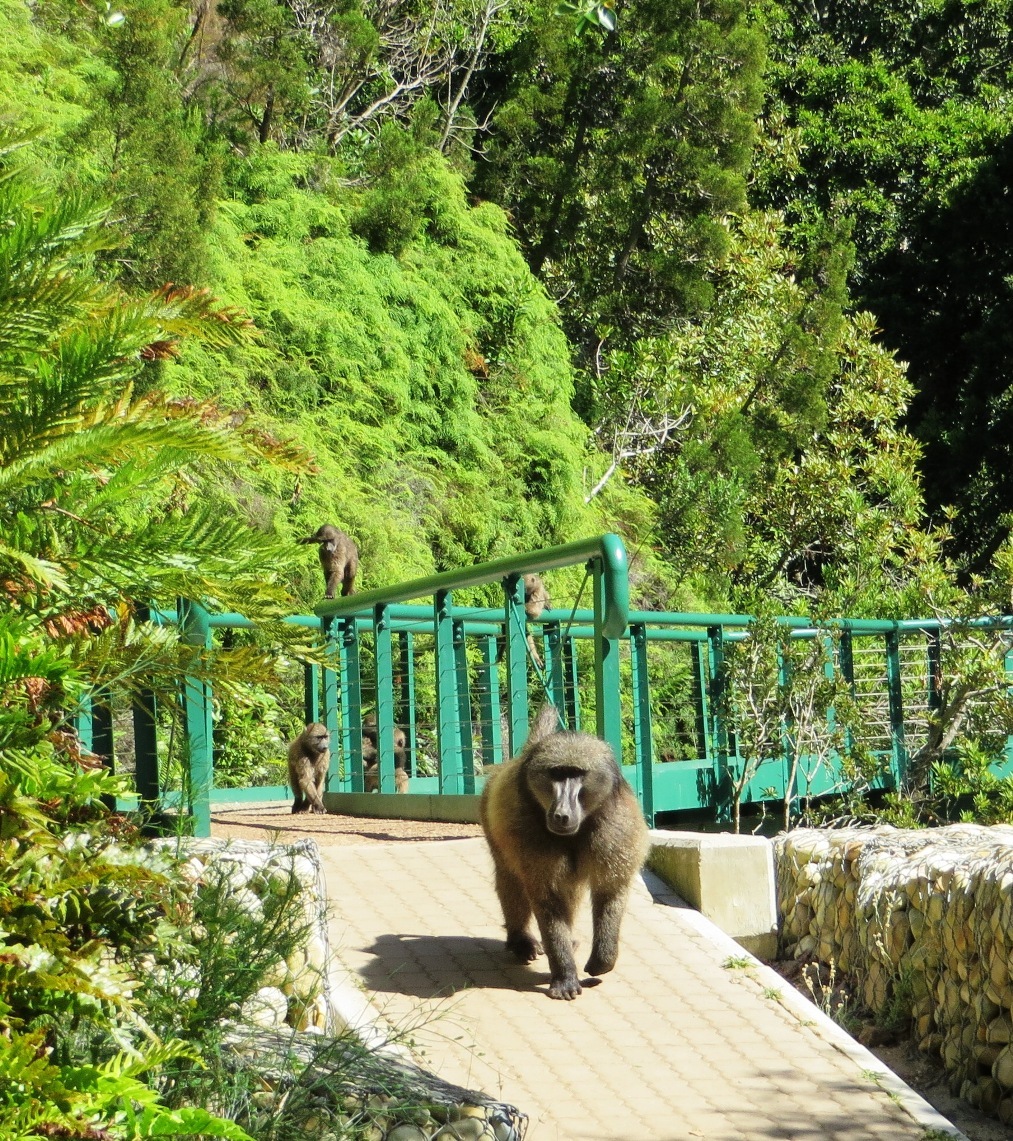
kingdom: Animalia
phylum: Chordata
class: Mammalia
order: Primates
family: Cercopithecidae
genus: Papio
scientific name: Papio ursinus
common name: Chacma baboon
